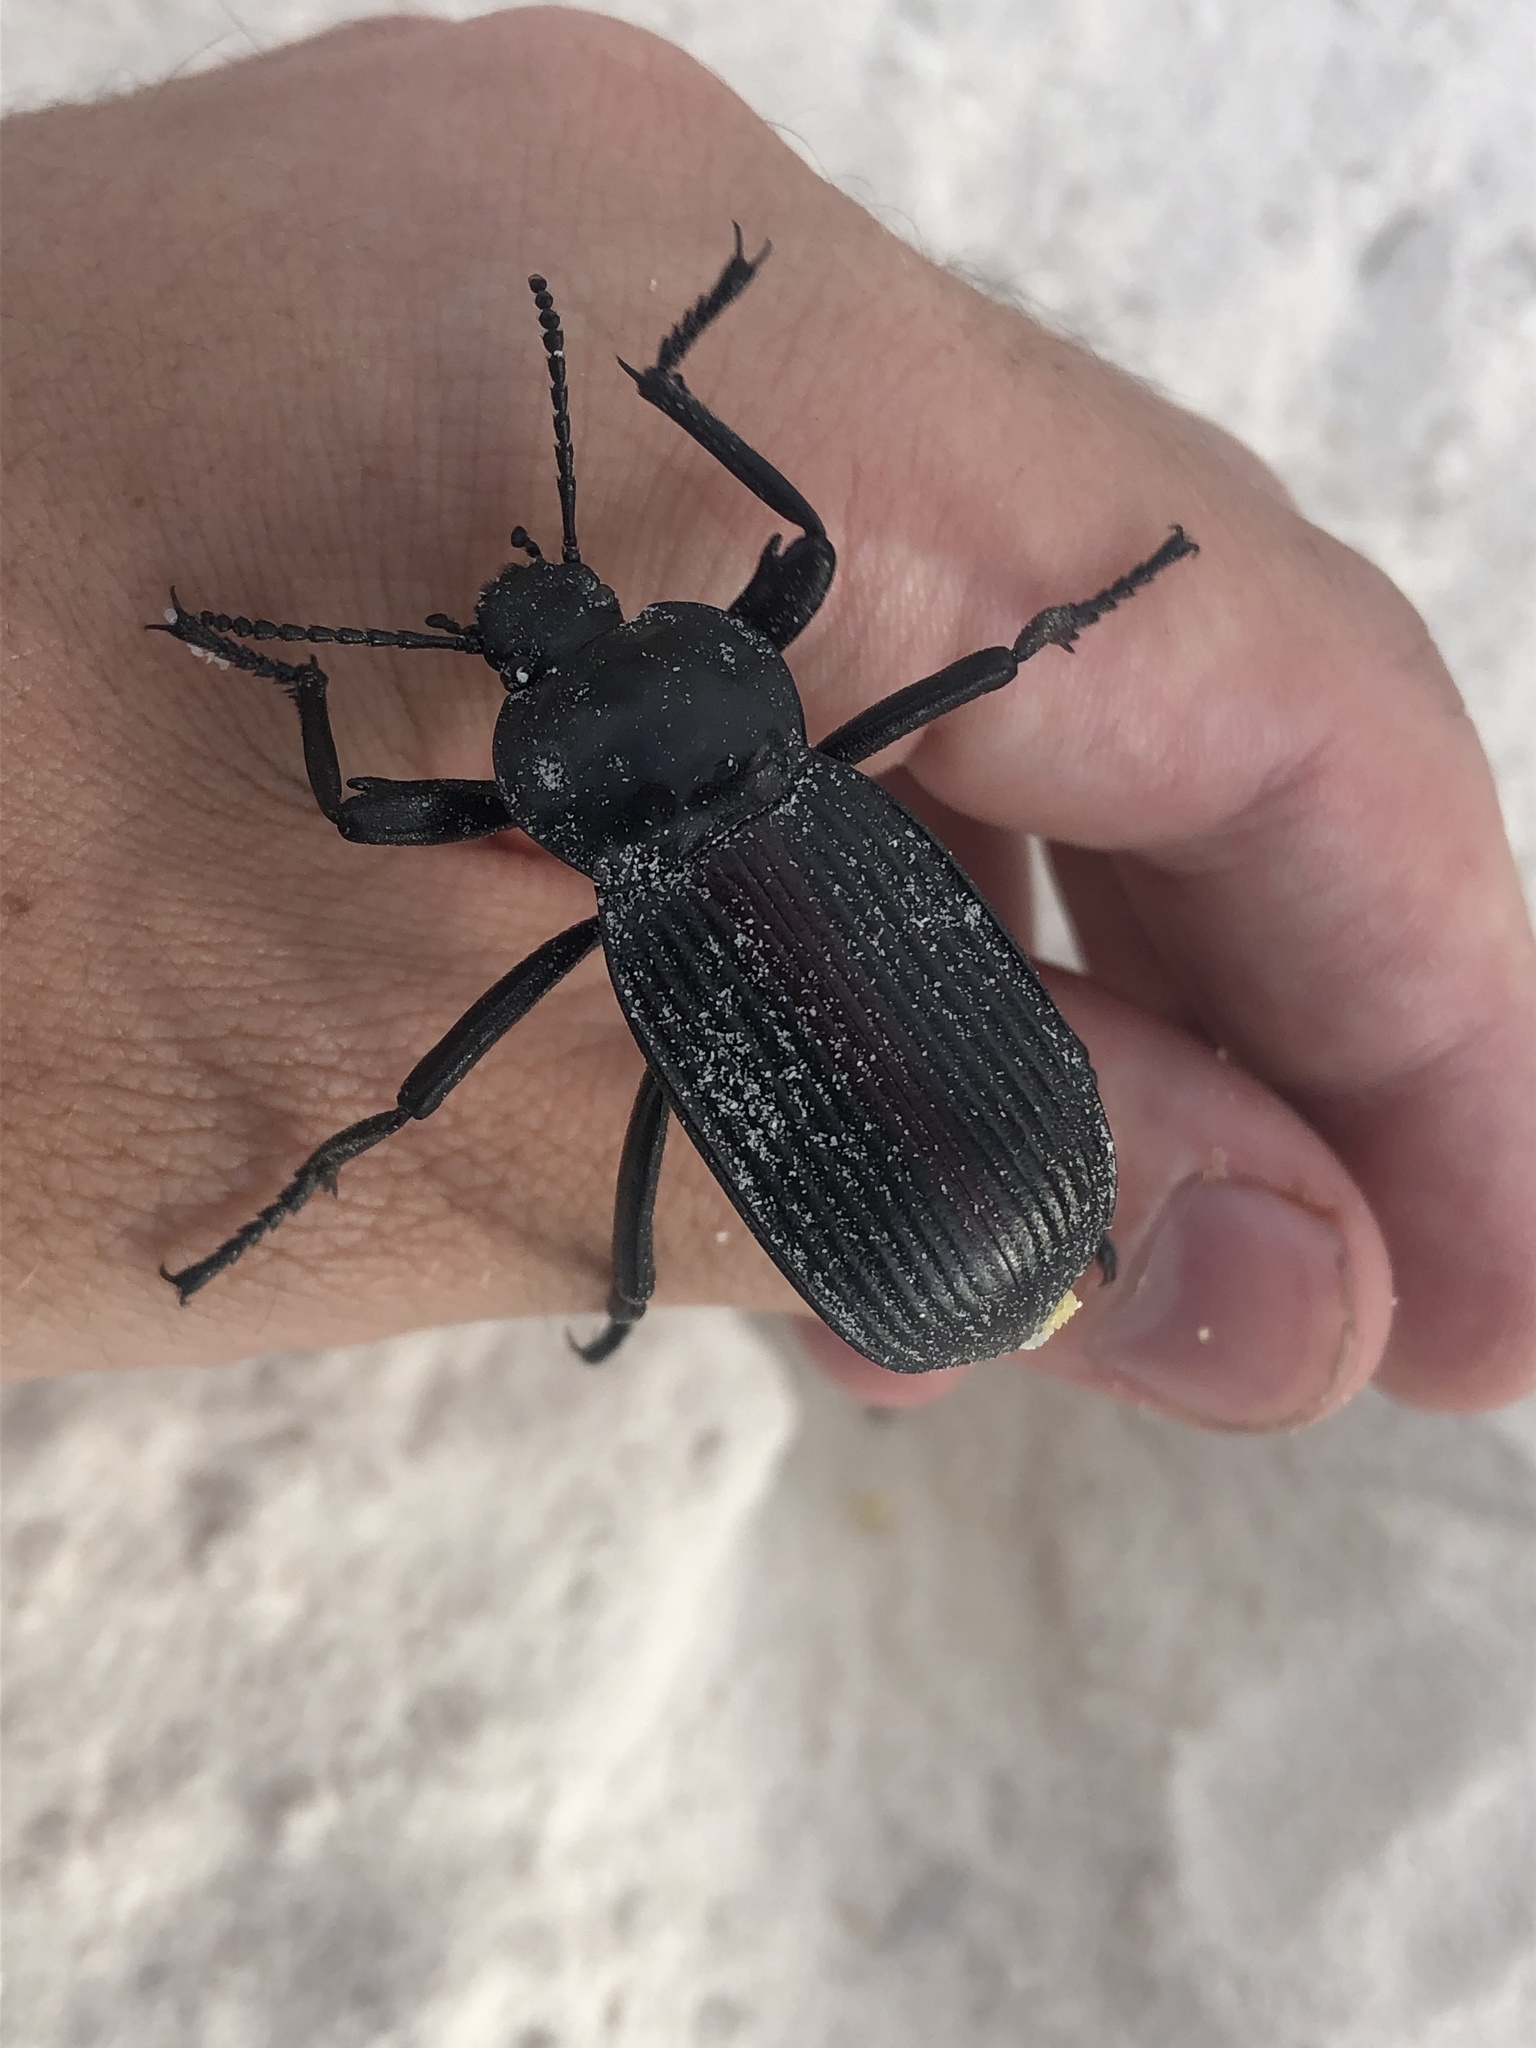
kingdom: Animalia
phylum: Arthropoda
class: Insecta
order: Coleoptera
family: Tenebrionidae
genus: Eleodes
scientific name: Eleodes acuta
